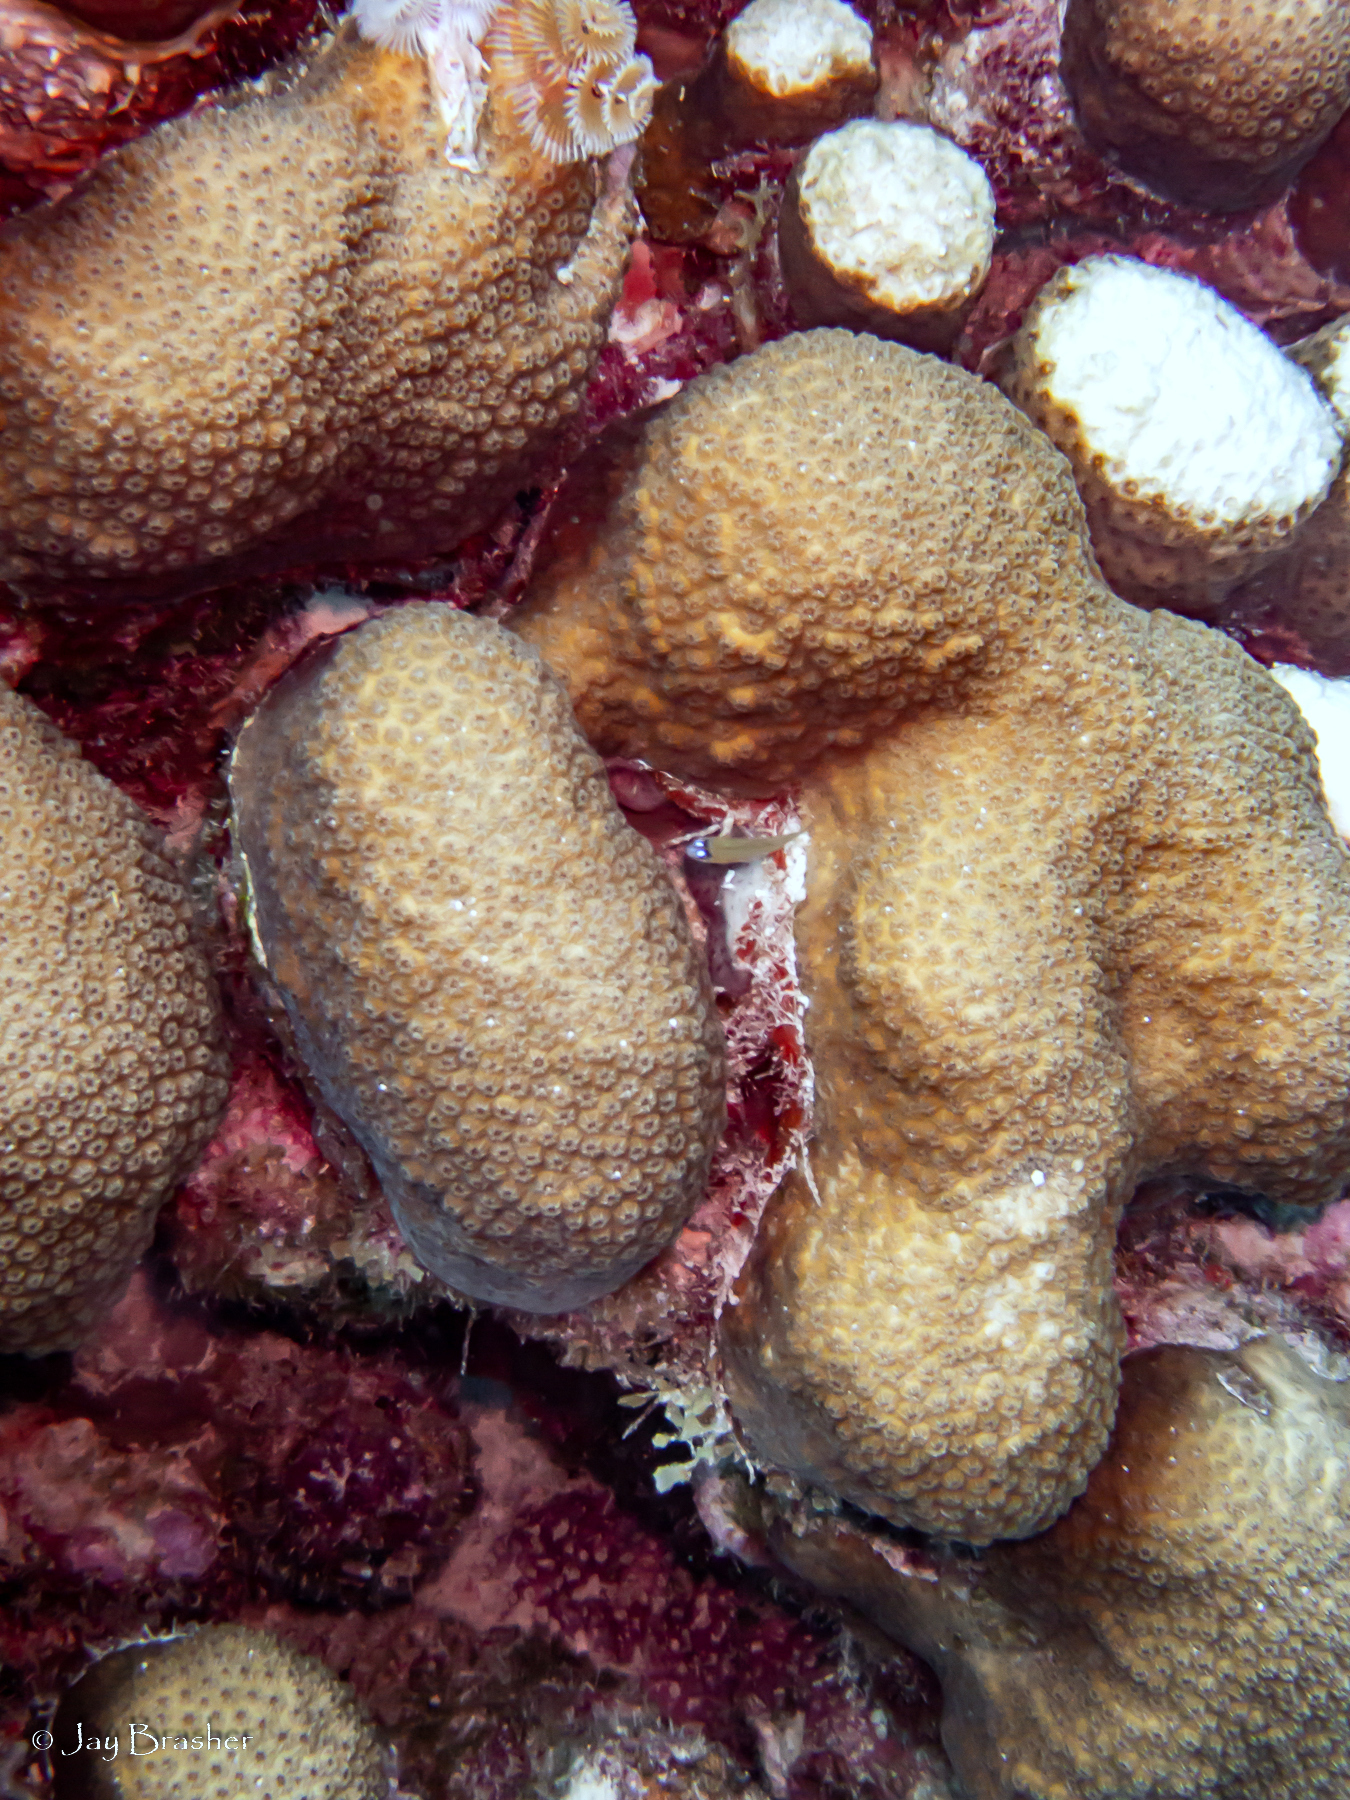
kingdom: Animalia
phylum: Cnidaria
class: Anthozoa
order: Scleractinia
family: Merulinidae
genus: Orbicella
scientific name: Orbicella annularis
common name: Boulder star coral
